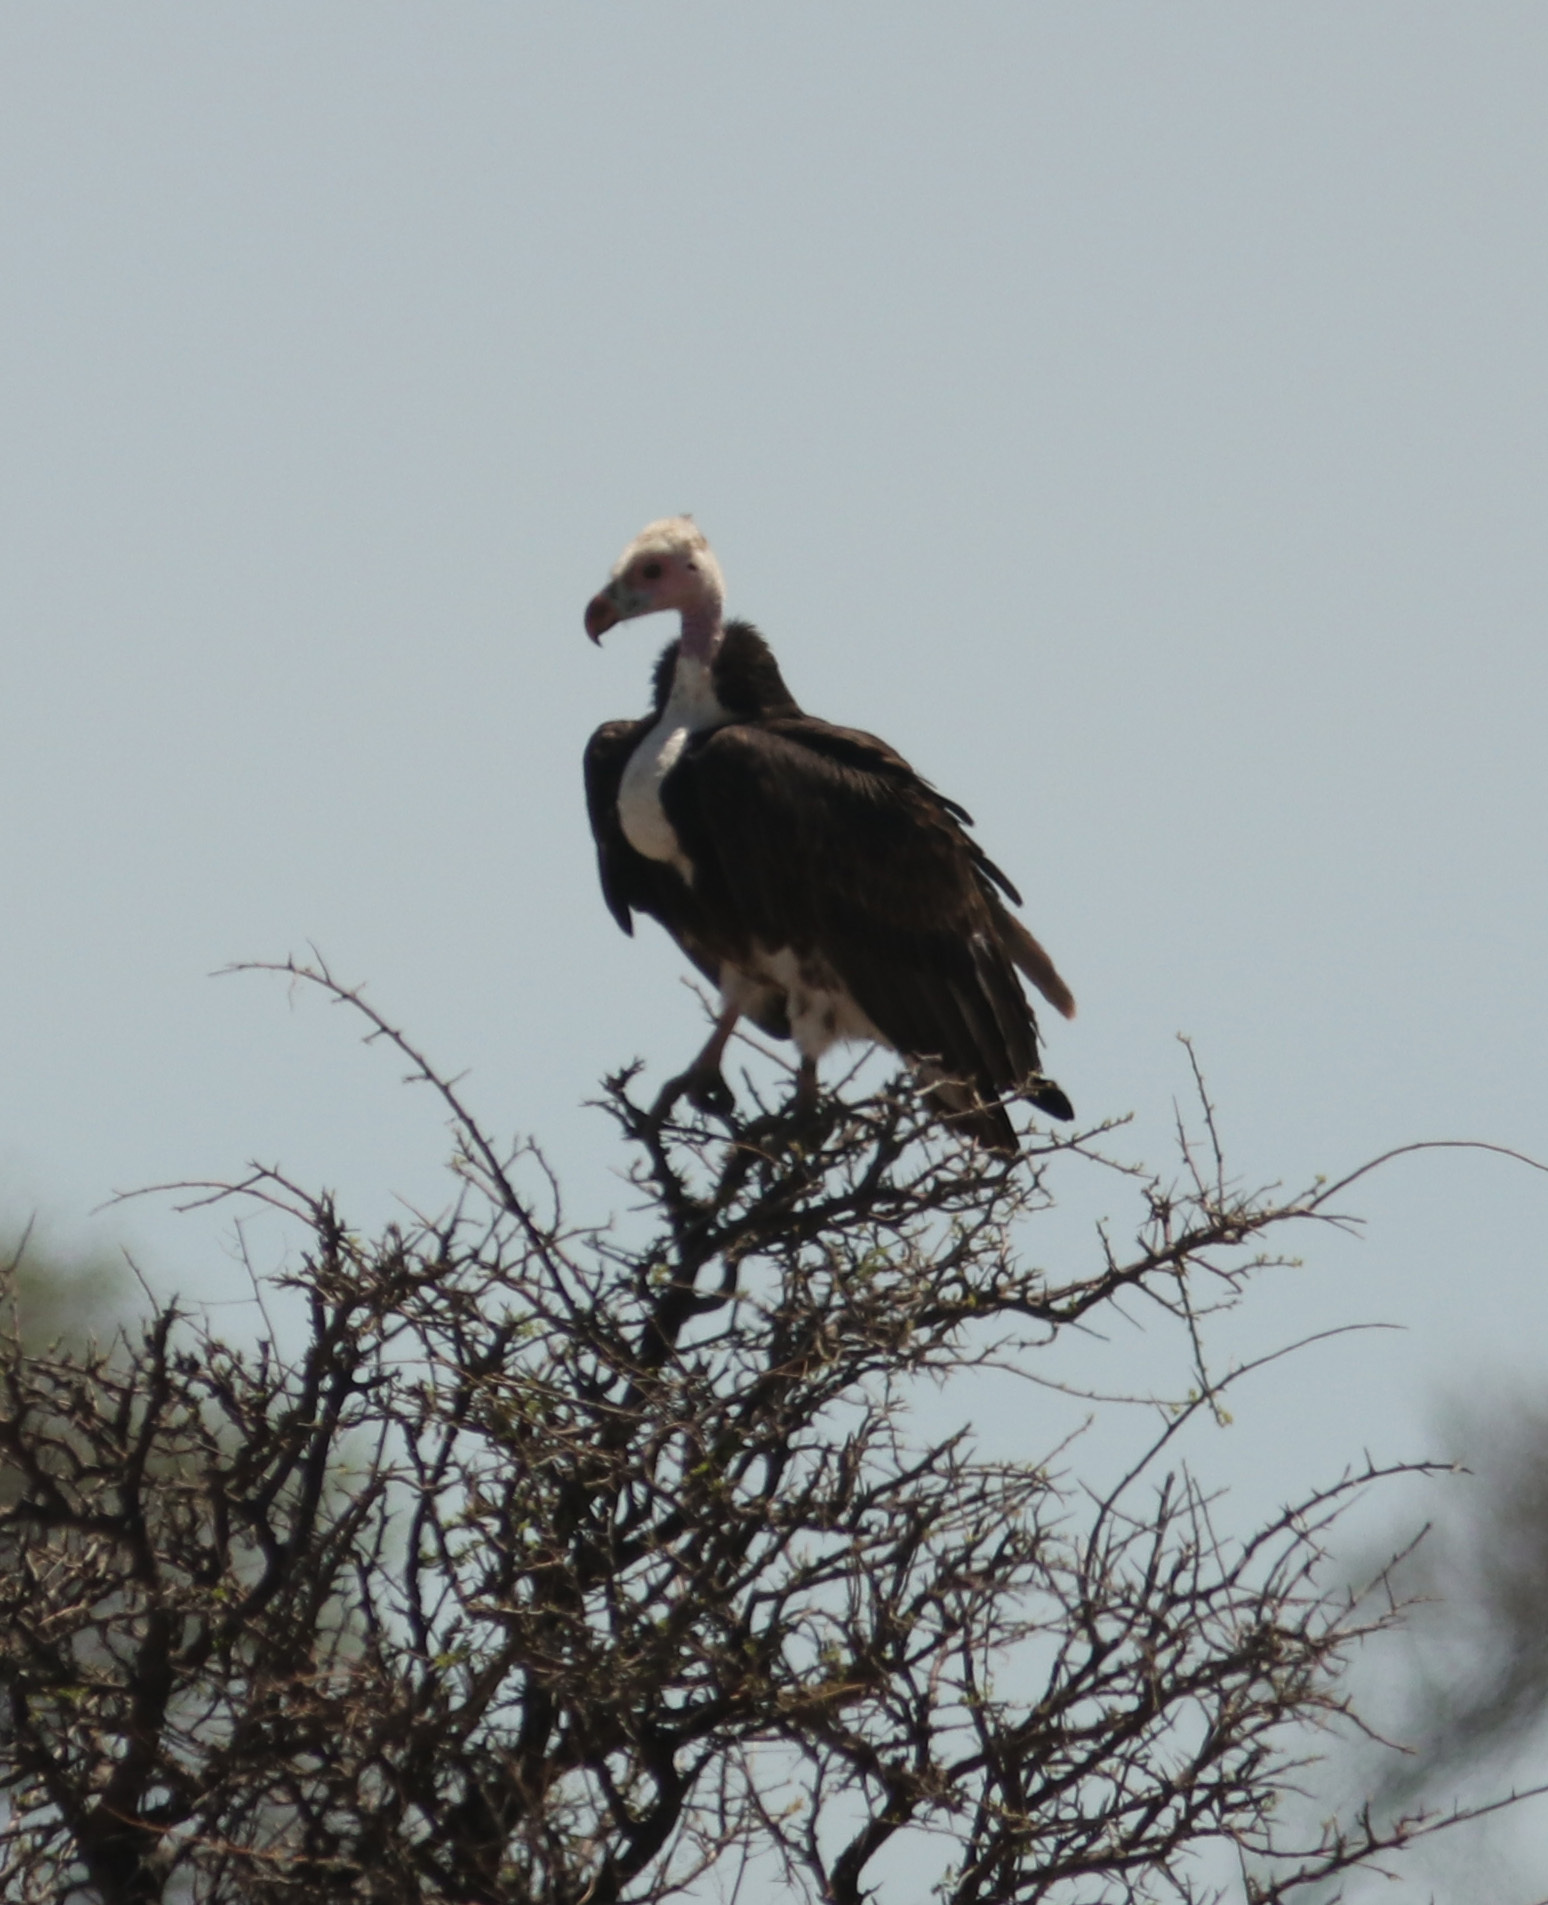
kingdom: Animalia
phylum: Chordata
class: Aves
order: Accipitriformes
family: Accipitridae
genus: Trigonoceps
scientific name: Trigonoceps occipitalis
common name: White-headed vulture
